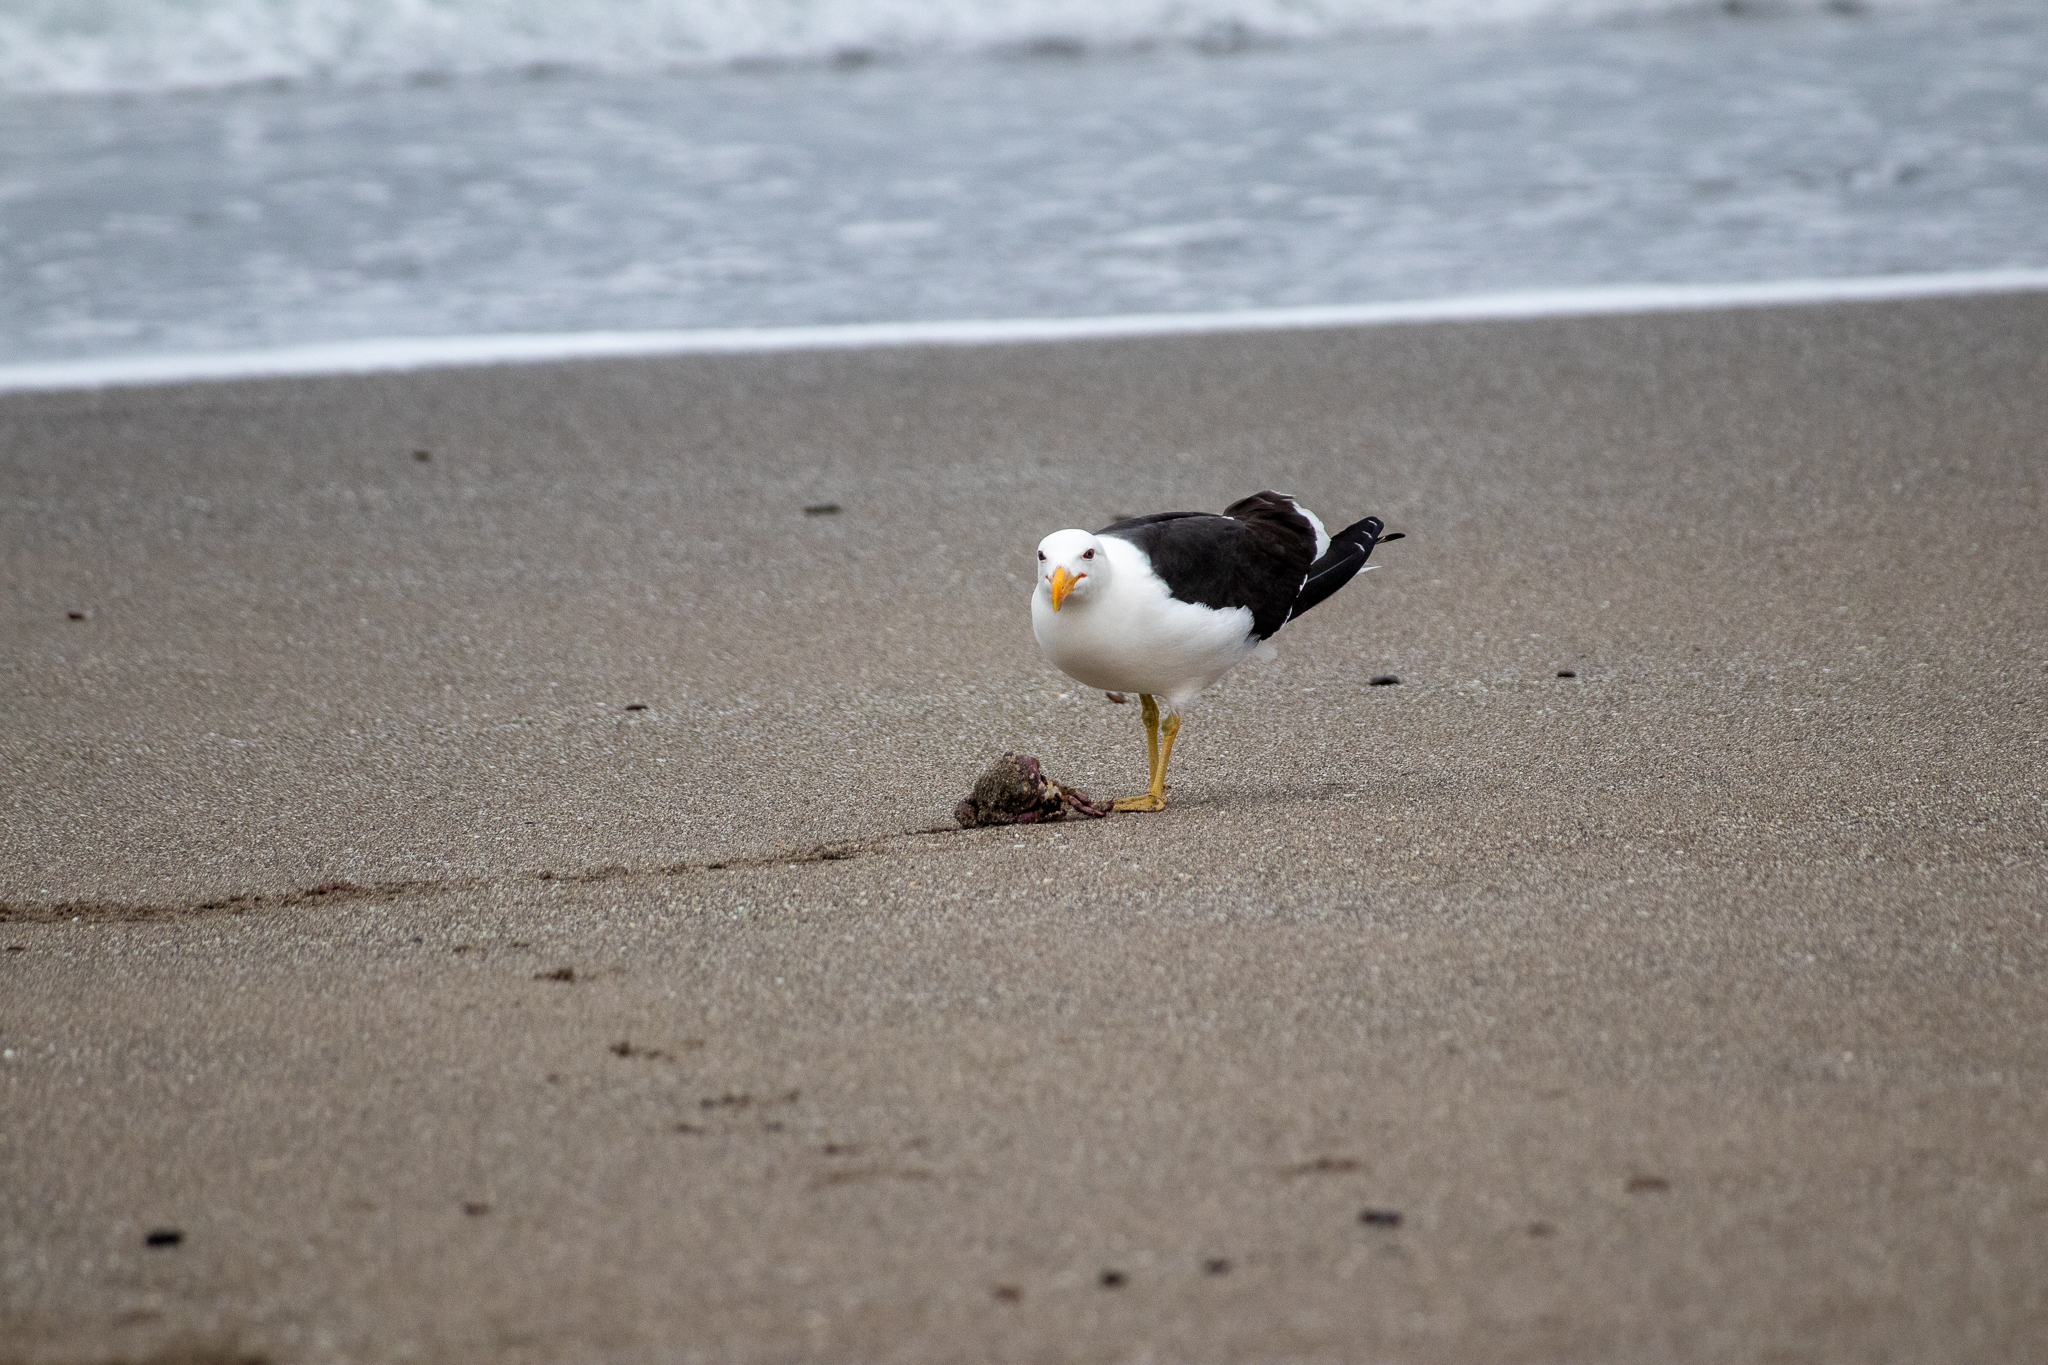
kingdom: Animalia
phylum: Chordata
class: Aves
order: Charadriiformes
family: Laridae
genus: Larus
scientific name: Larus dominicanus
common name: Kelp gull
